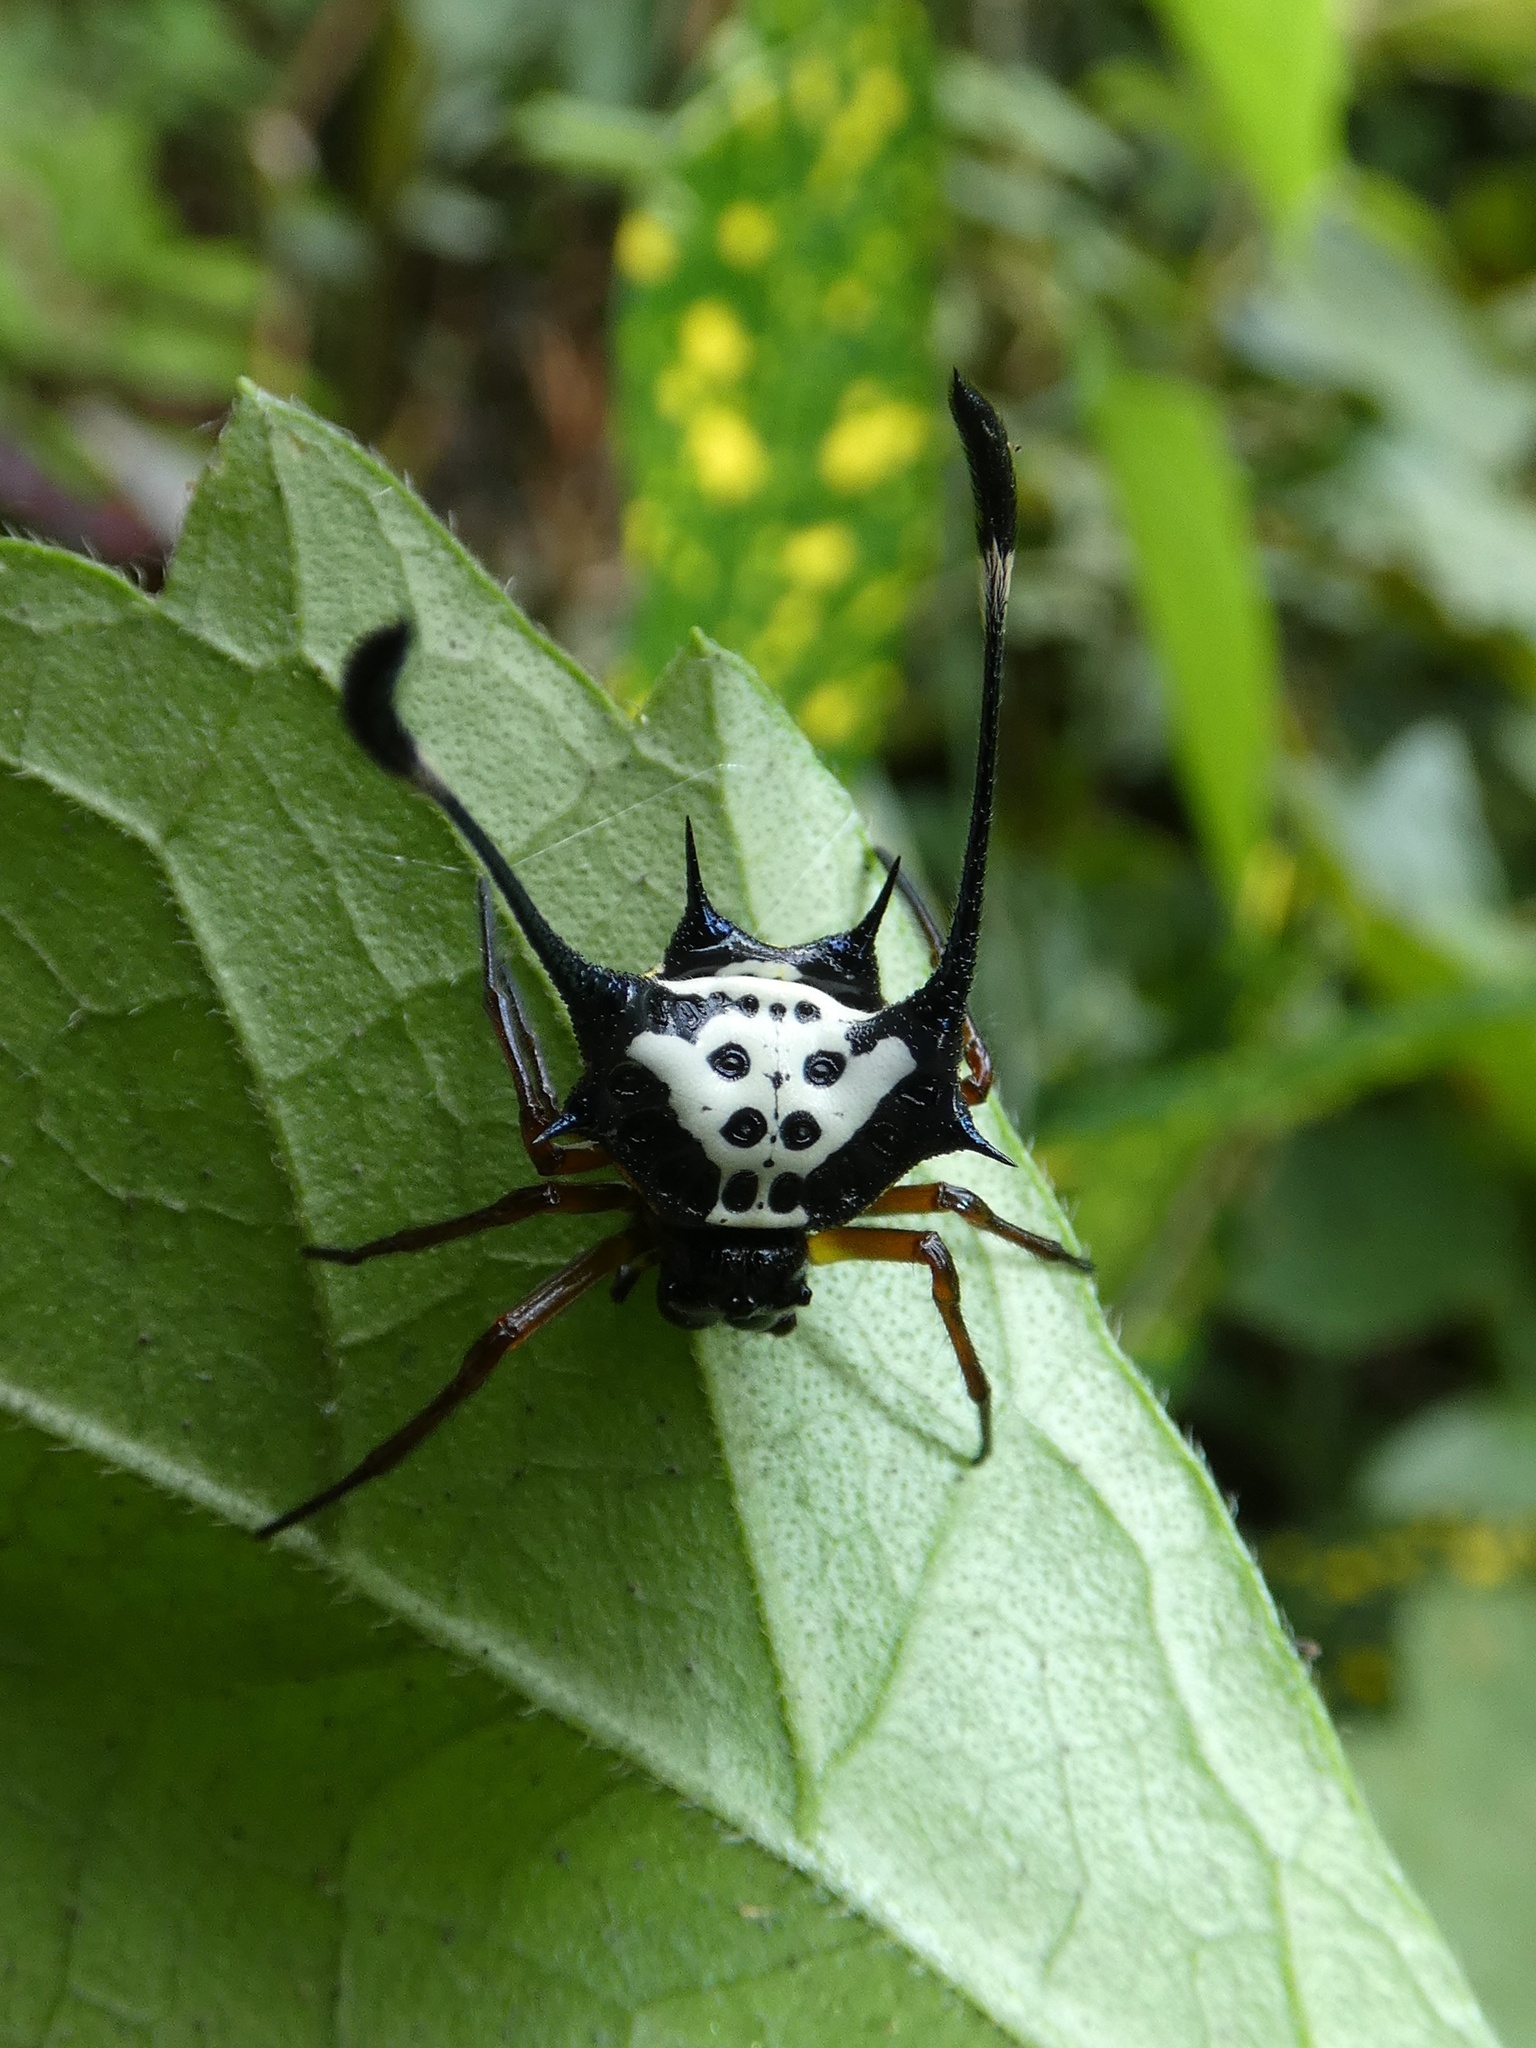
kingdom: Animalia
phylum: Arthropoda
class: Arachnida
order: Araneae
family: Araneidae
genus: Gasteracantha
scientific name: Gasteracantha janopol
